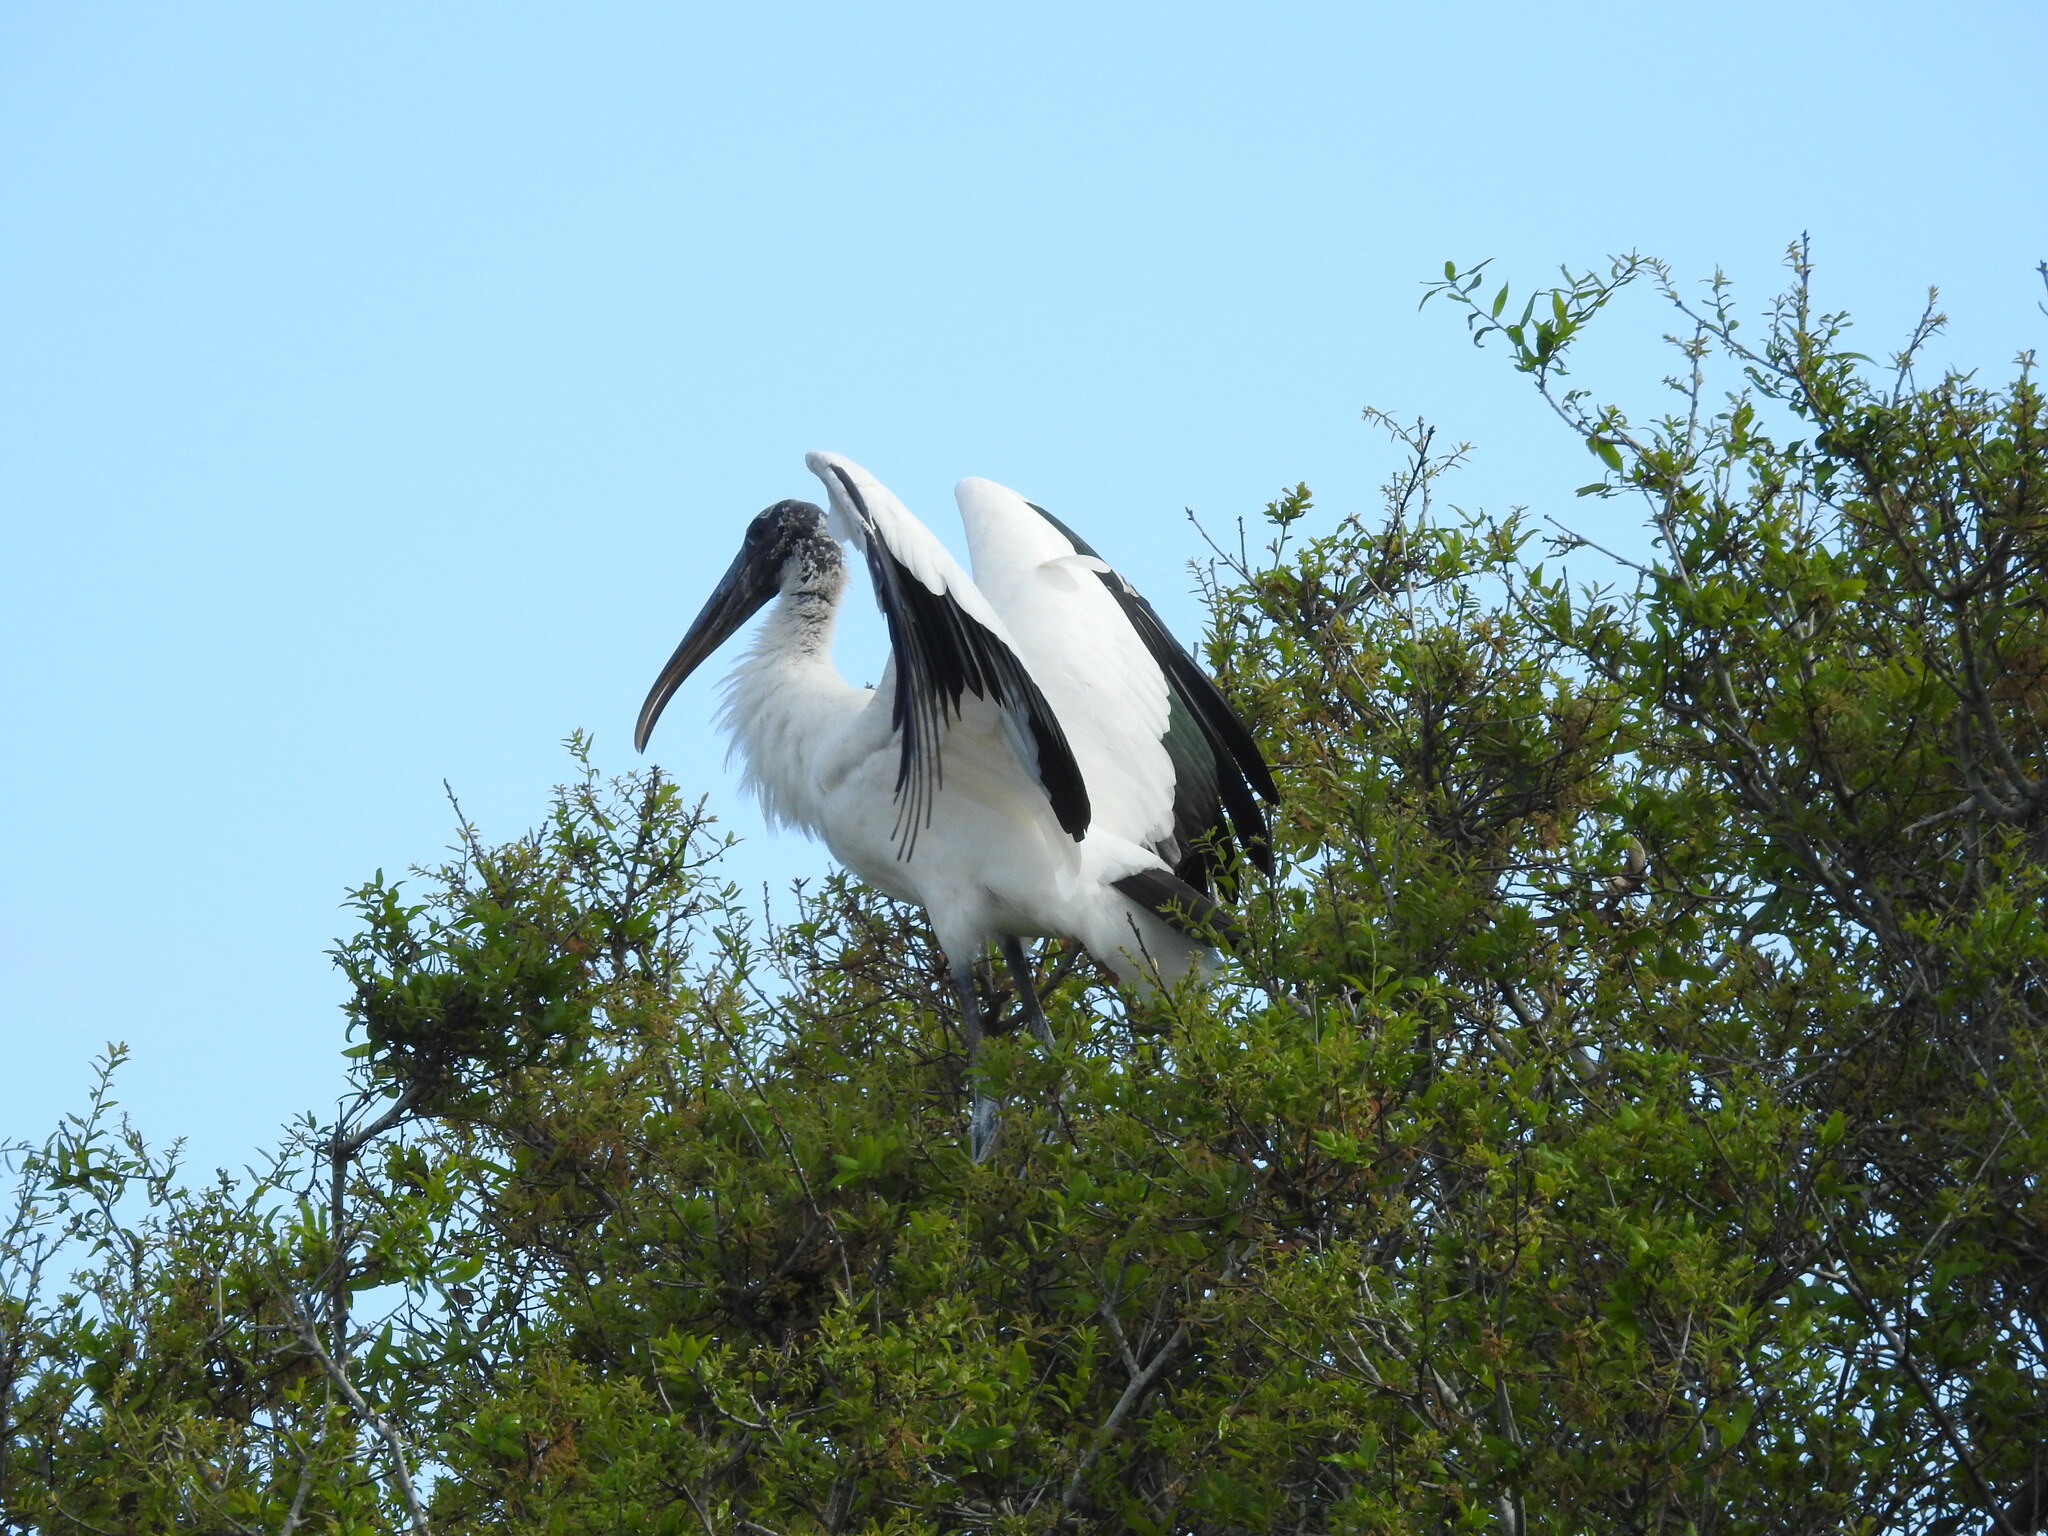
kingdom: Animalia
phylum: Chordata
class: Aves
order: Ciconiiformes
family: Ciconiidae
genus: Mycteria
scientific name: Mycteria americana
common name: Wood stork
